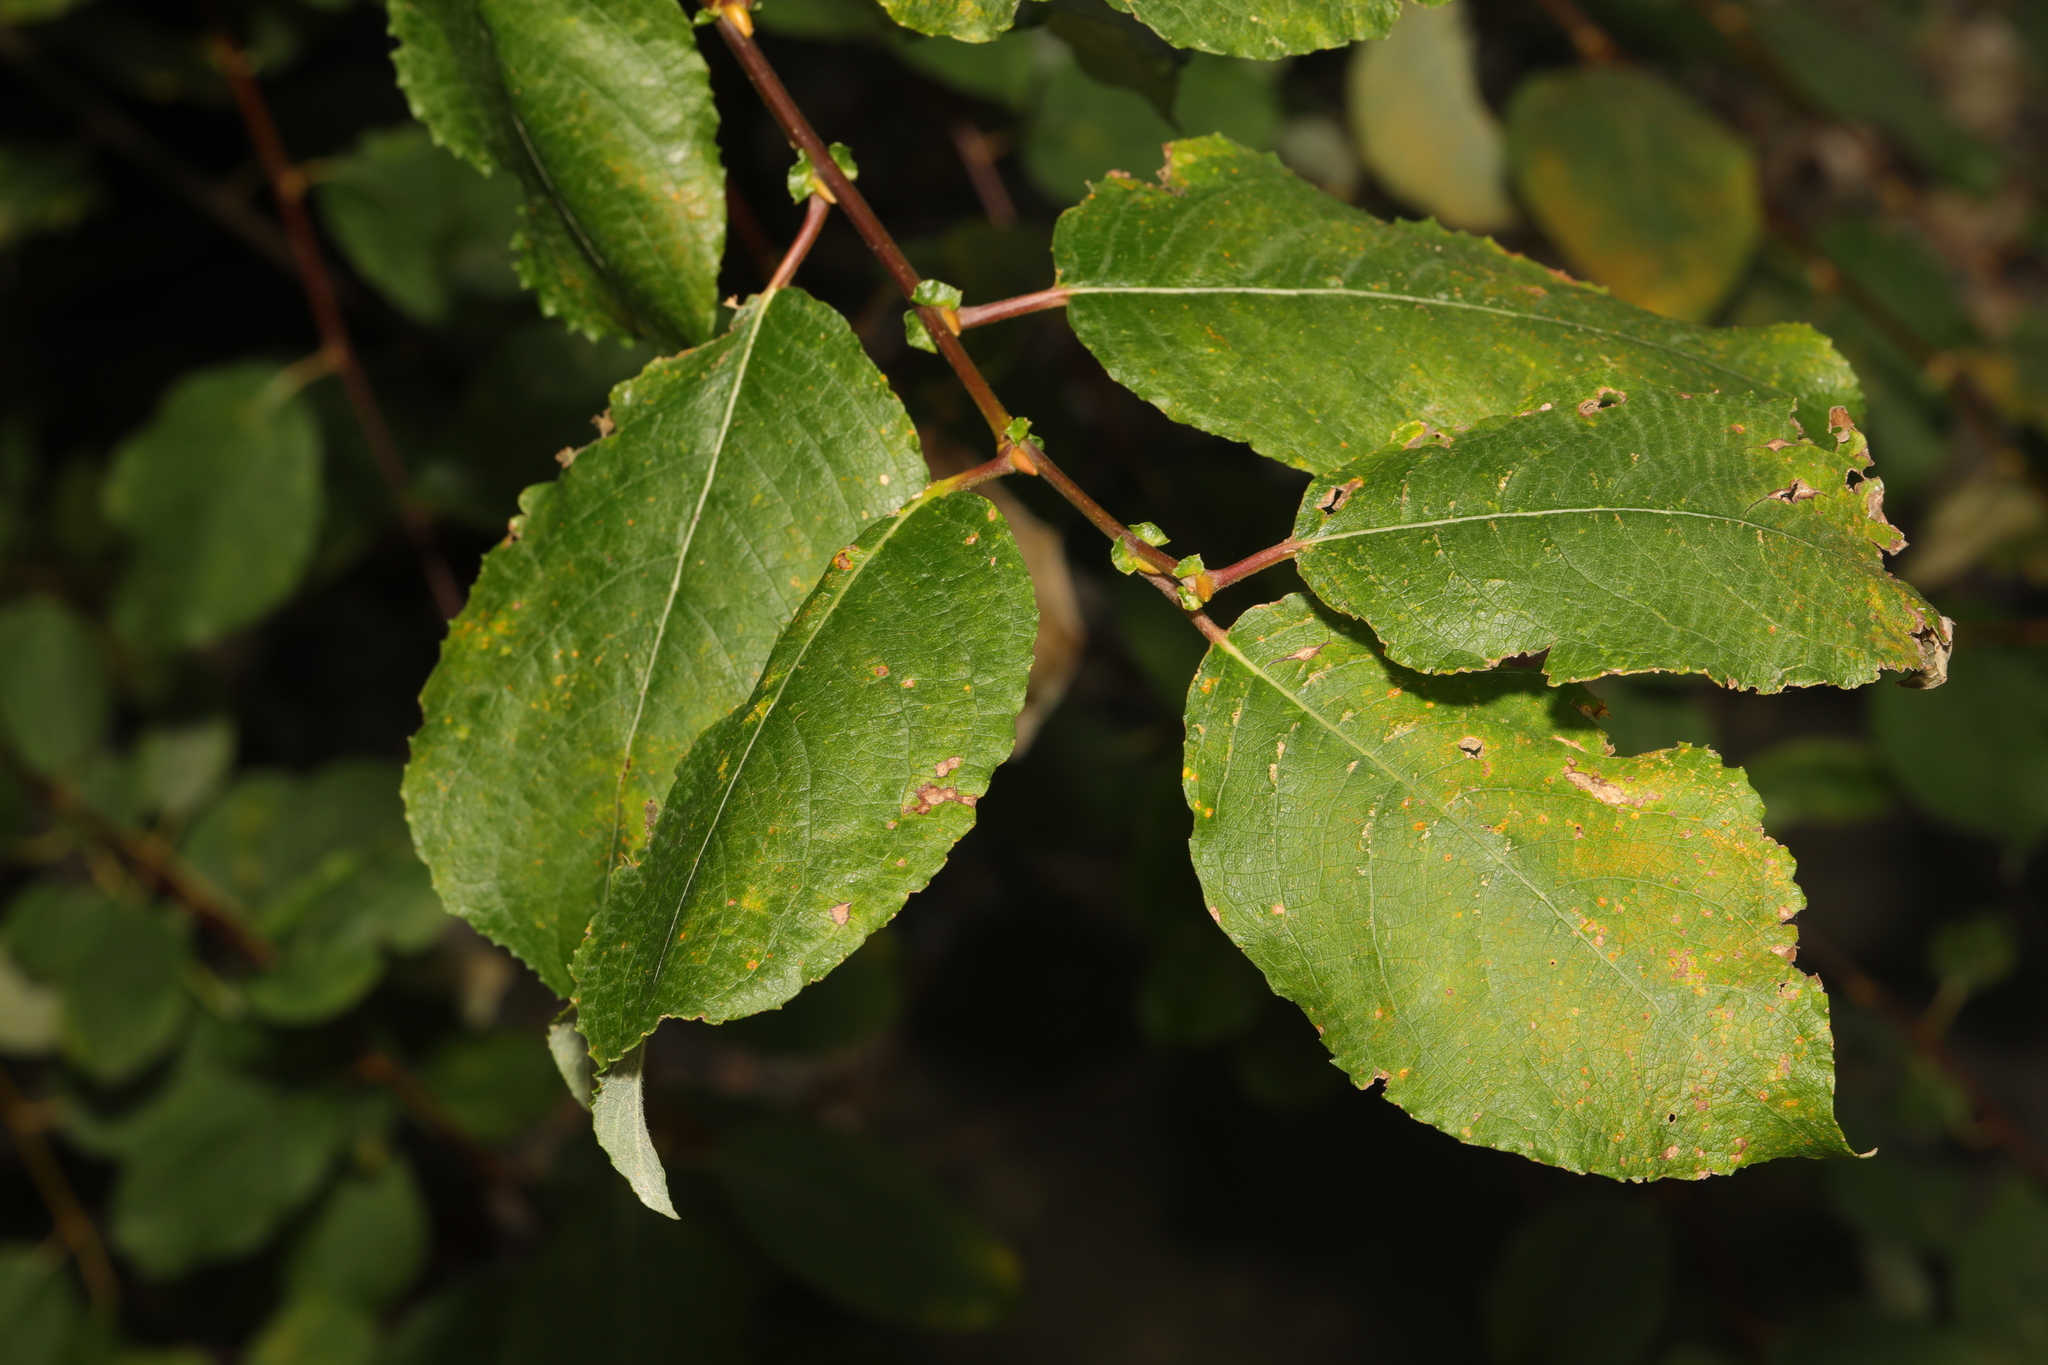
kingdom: Plantae
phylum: Tracheophyta
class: Magnoliopsida
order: Malpighiales
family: Salicaceae
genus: Salix
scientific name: Salix caprea
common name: Goat willow
